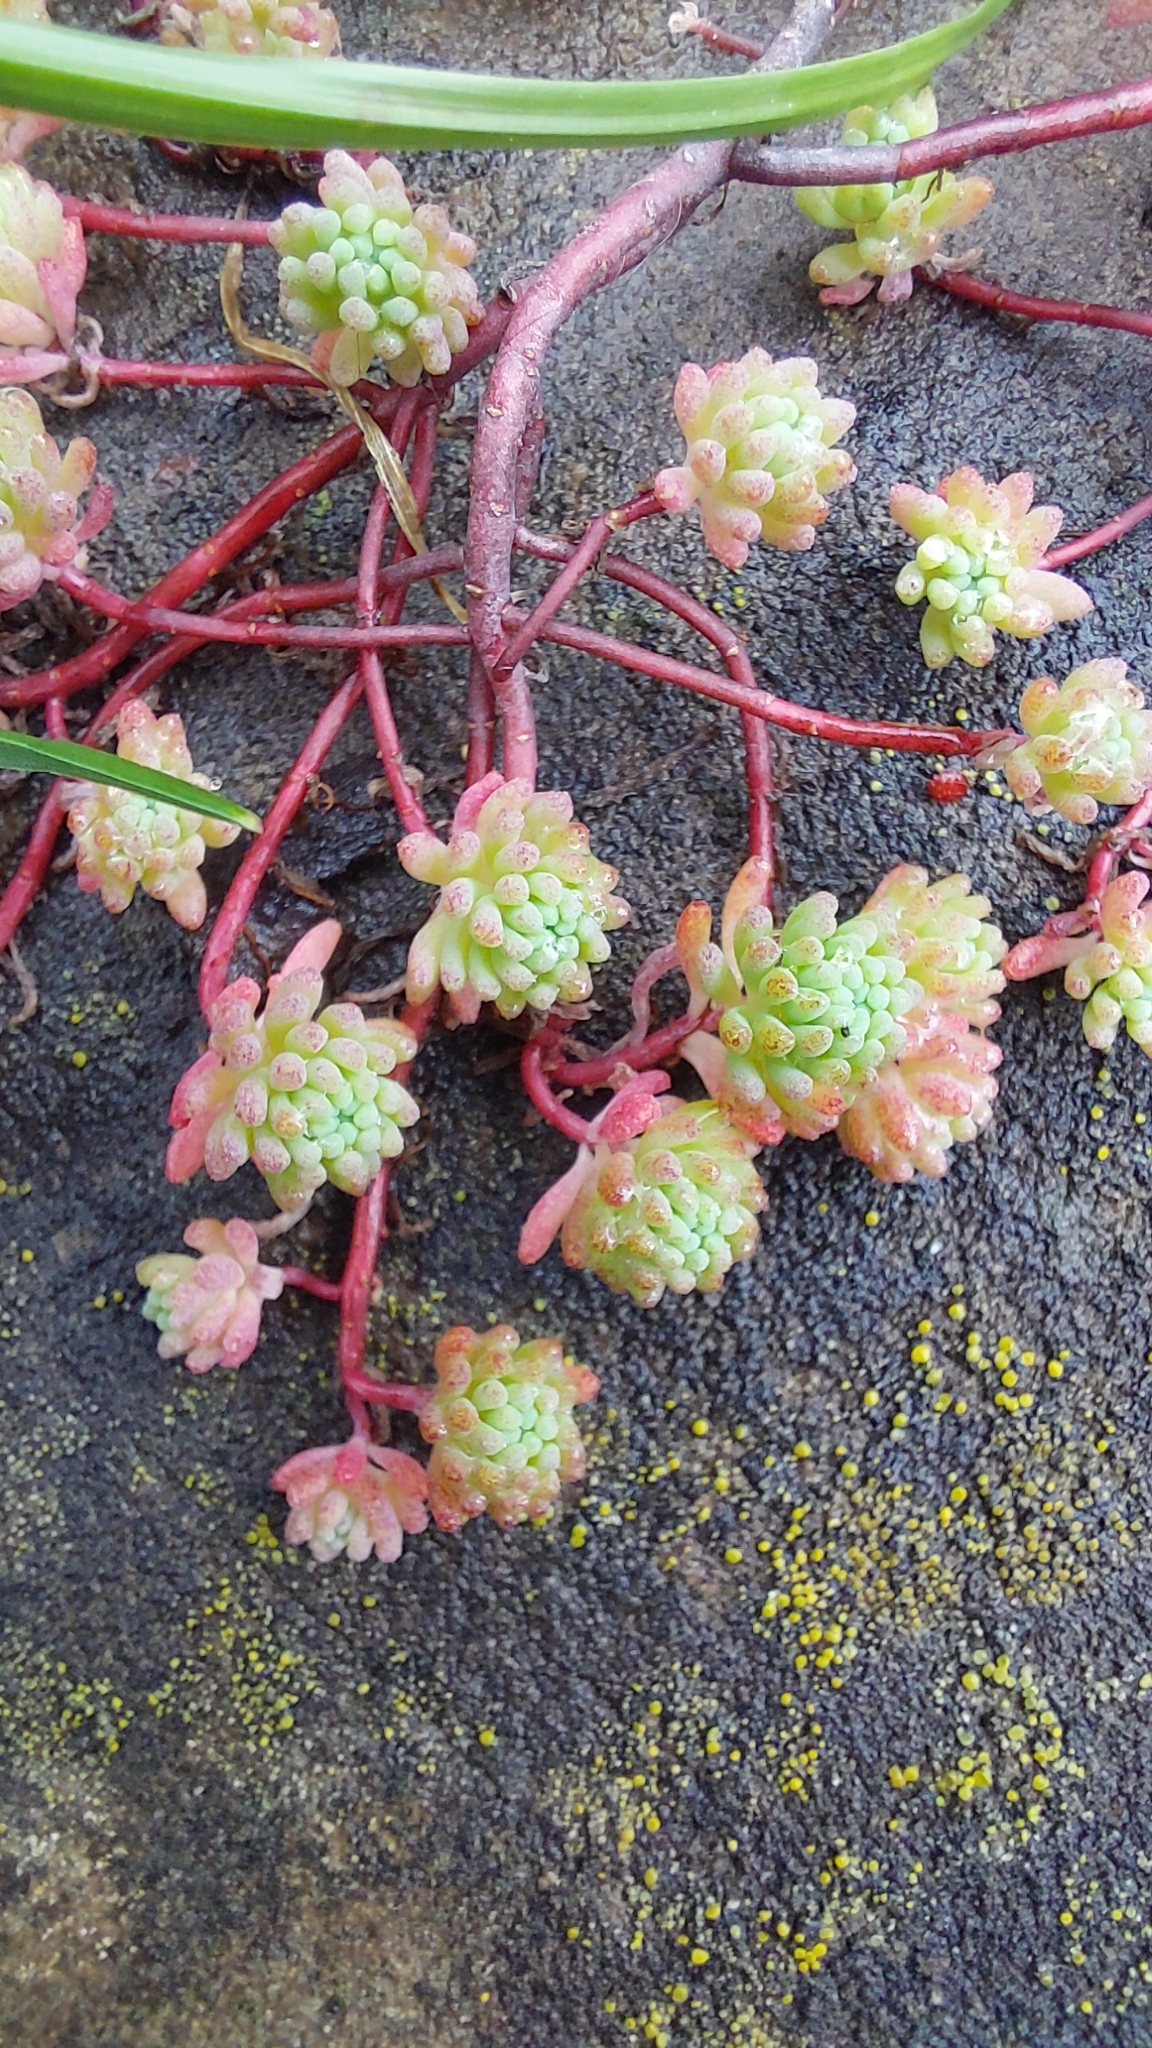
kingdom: Plantae
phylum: Tracheophyta
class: Magnoliopsida
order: Saxifragales
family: Crassulaceae
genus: Sedum
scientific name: Sedum pallidum
